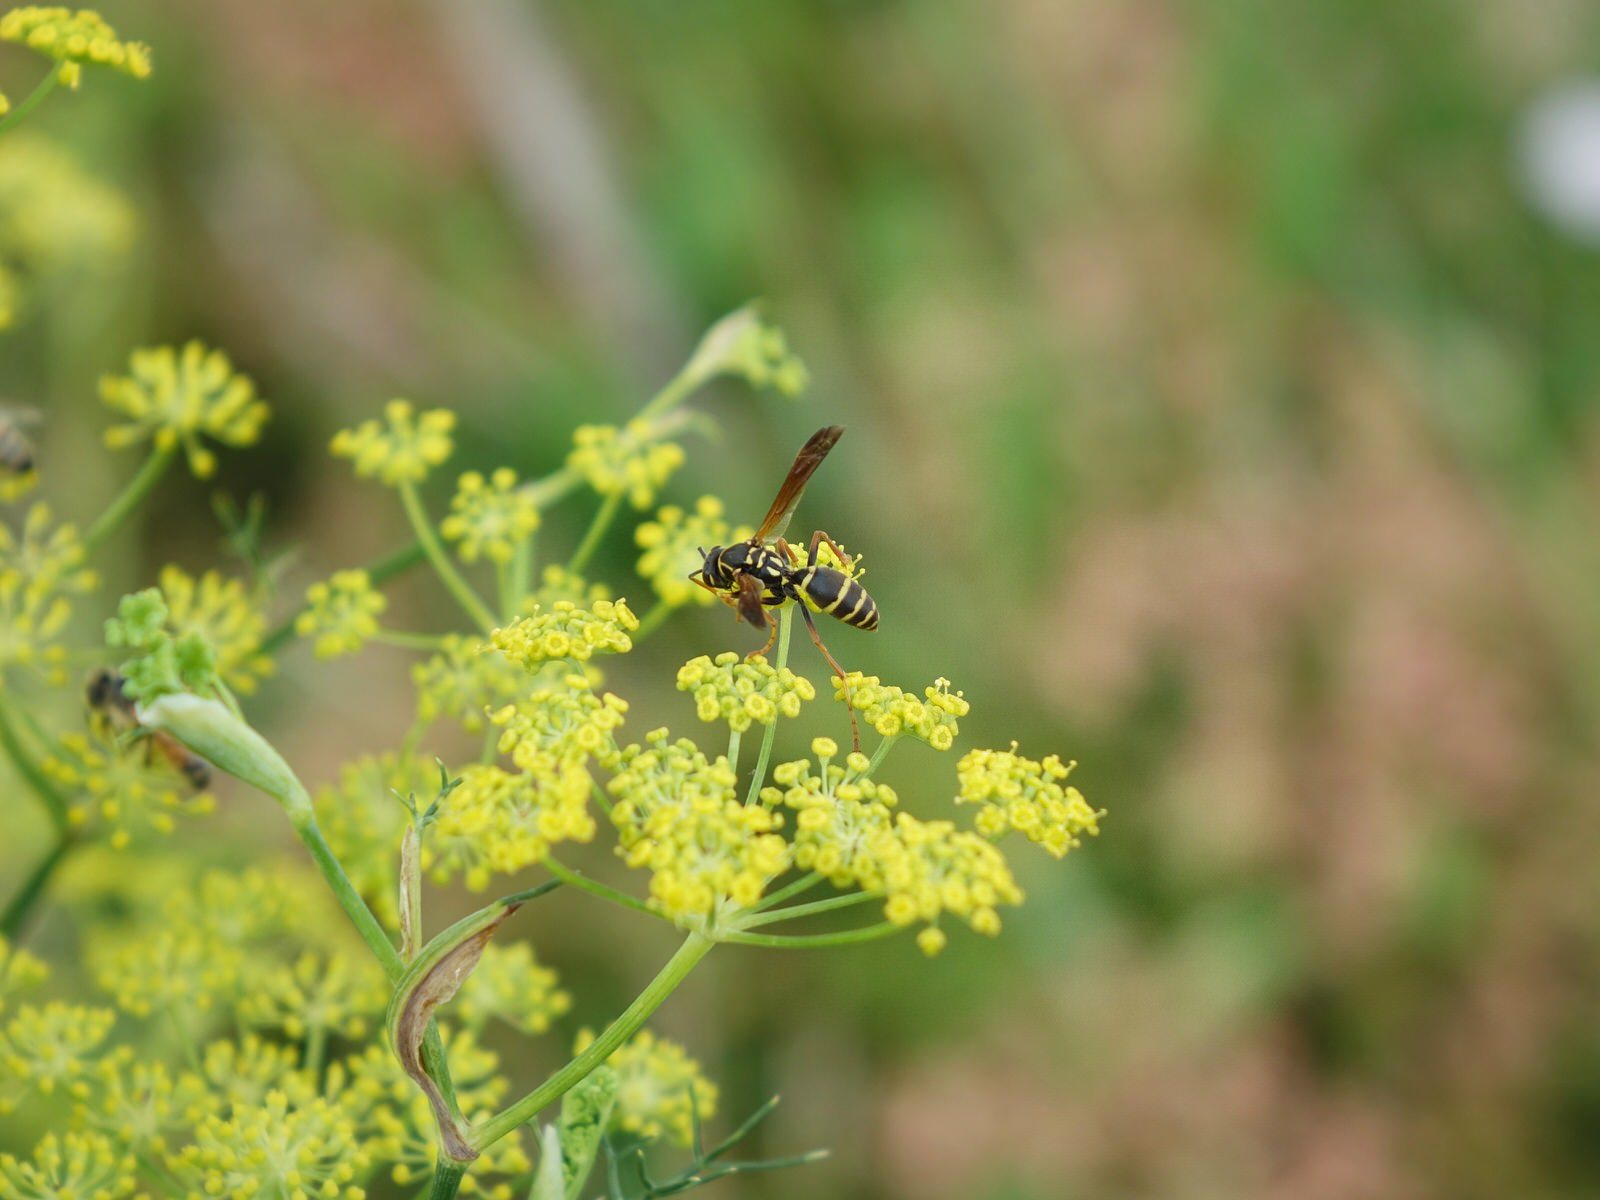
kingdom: Animalia
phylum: Arthropoda
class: Insecta
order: Hymenoptera
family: Eumenidae
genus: Polistes
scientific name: Polistes chinensis
